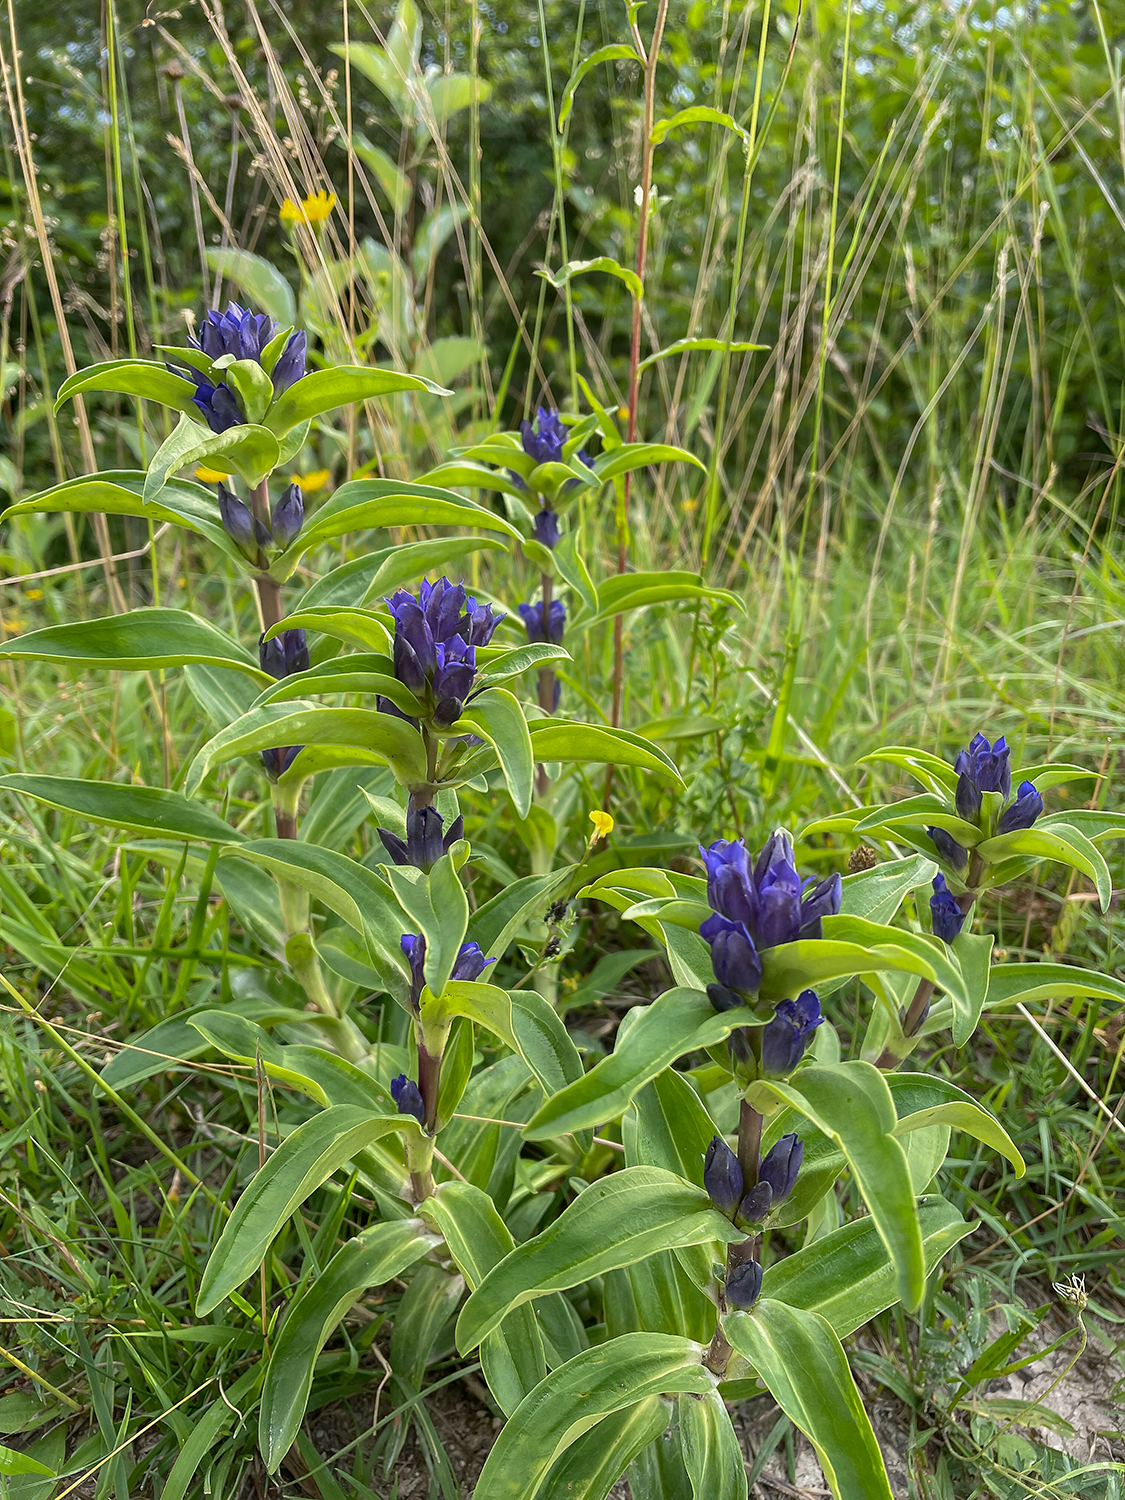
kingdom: Plantae
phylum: Tracheophyta
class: Magnoliopsida
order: Gentianales
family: Gentianaceae
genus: Gentiana
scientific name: Gentiana cruciata
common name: Cross gentian
